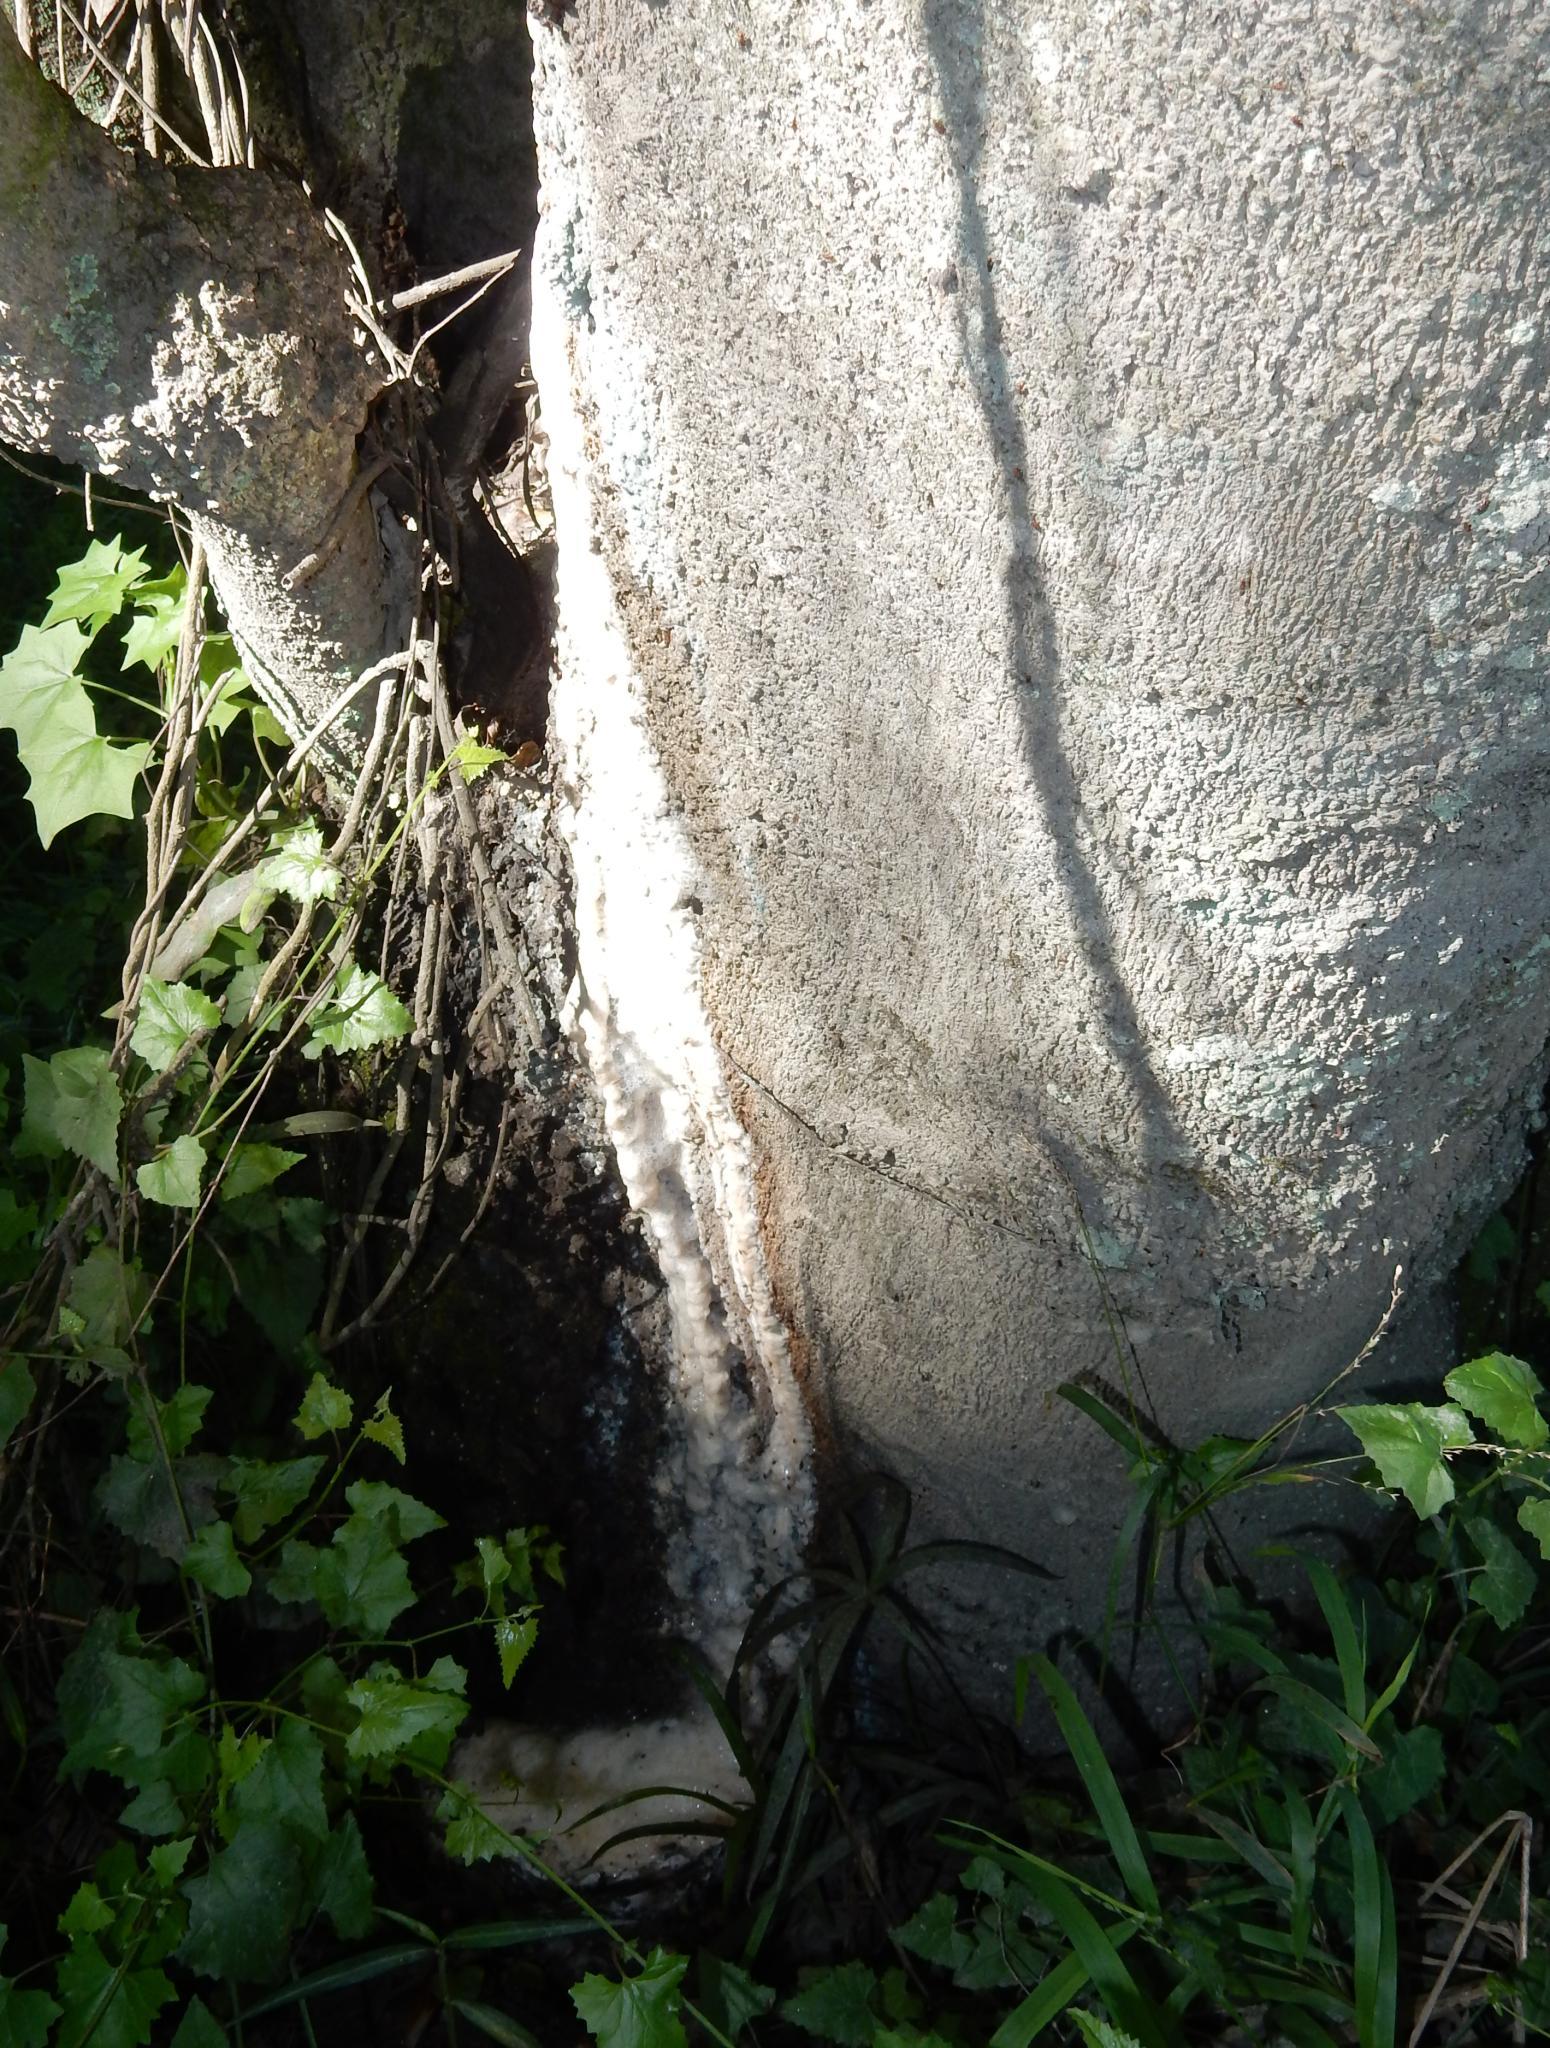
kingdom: Plantae
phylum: Tracheophyta
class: Magnoliopsida
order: Sapindales
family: Rutaceae
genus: Vepris
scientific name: Vepris lanceolata
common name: White ironwood
